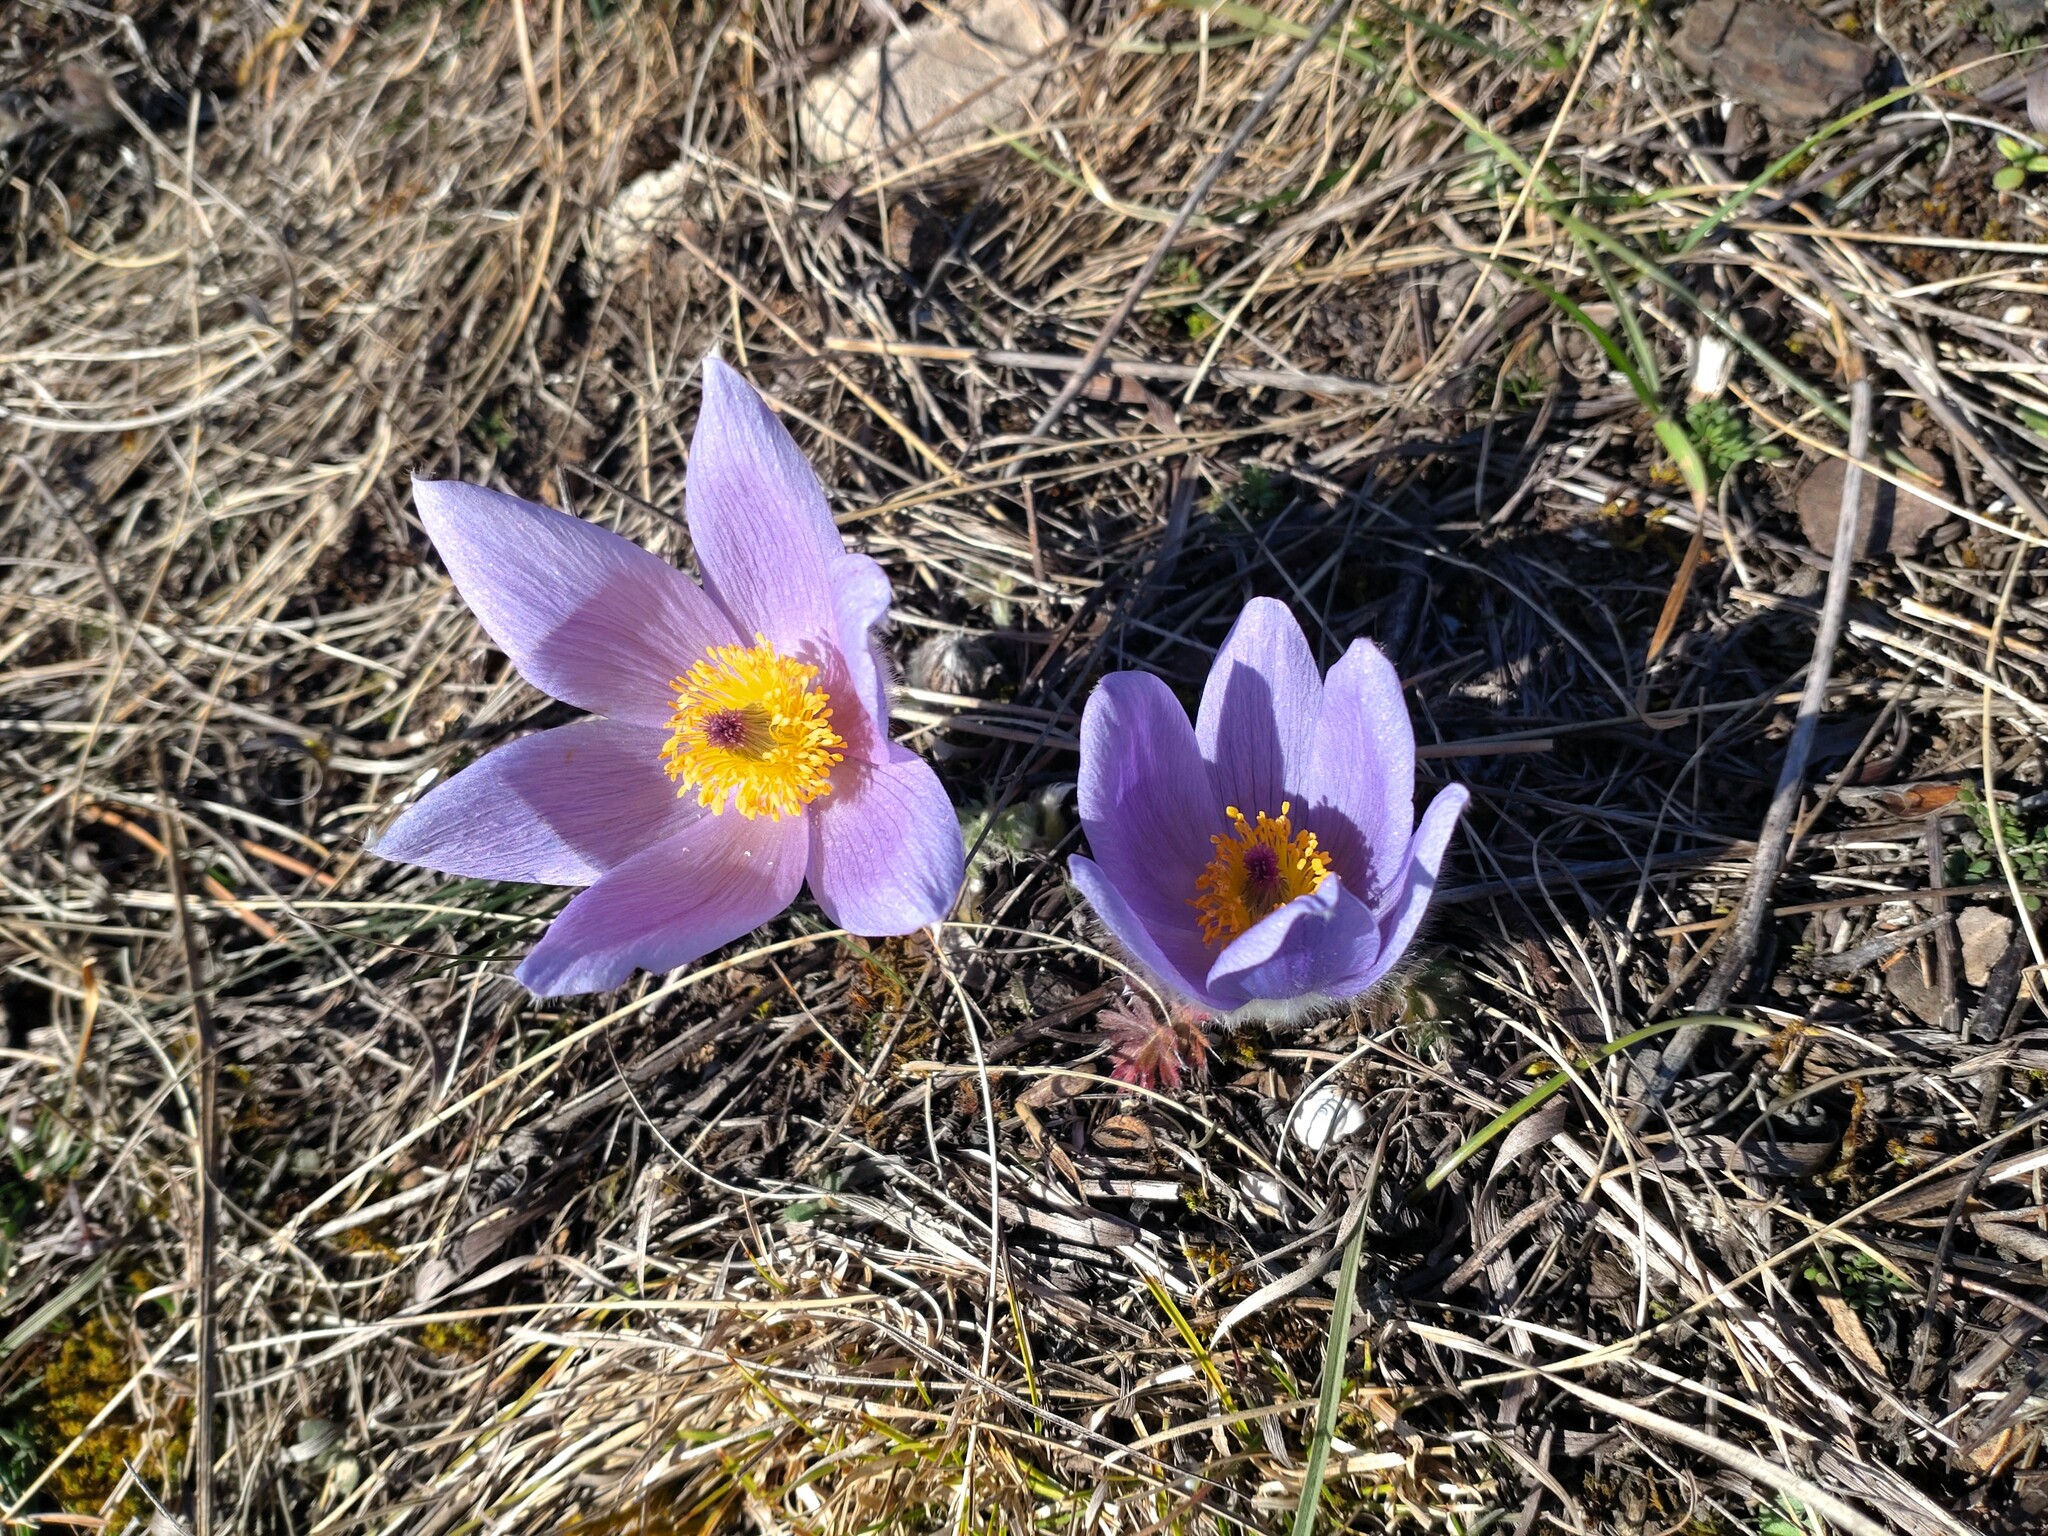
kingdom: Plantae
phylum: Tracheophyta
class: Magnoliopsida
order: Ranunculales
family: Ranunculaceae
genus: Pulsatilla
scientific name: Pulsatilla grandis
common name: Greater pasque flower
